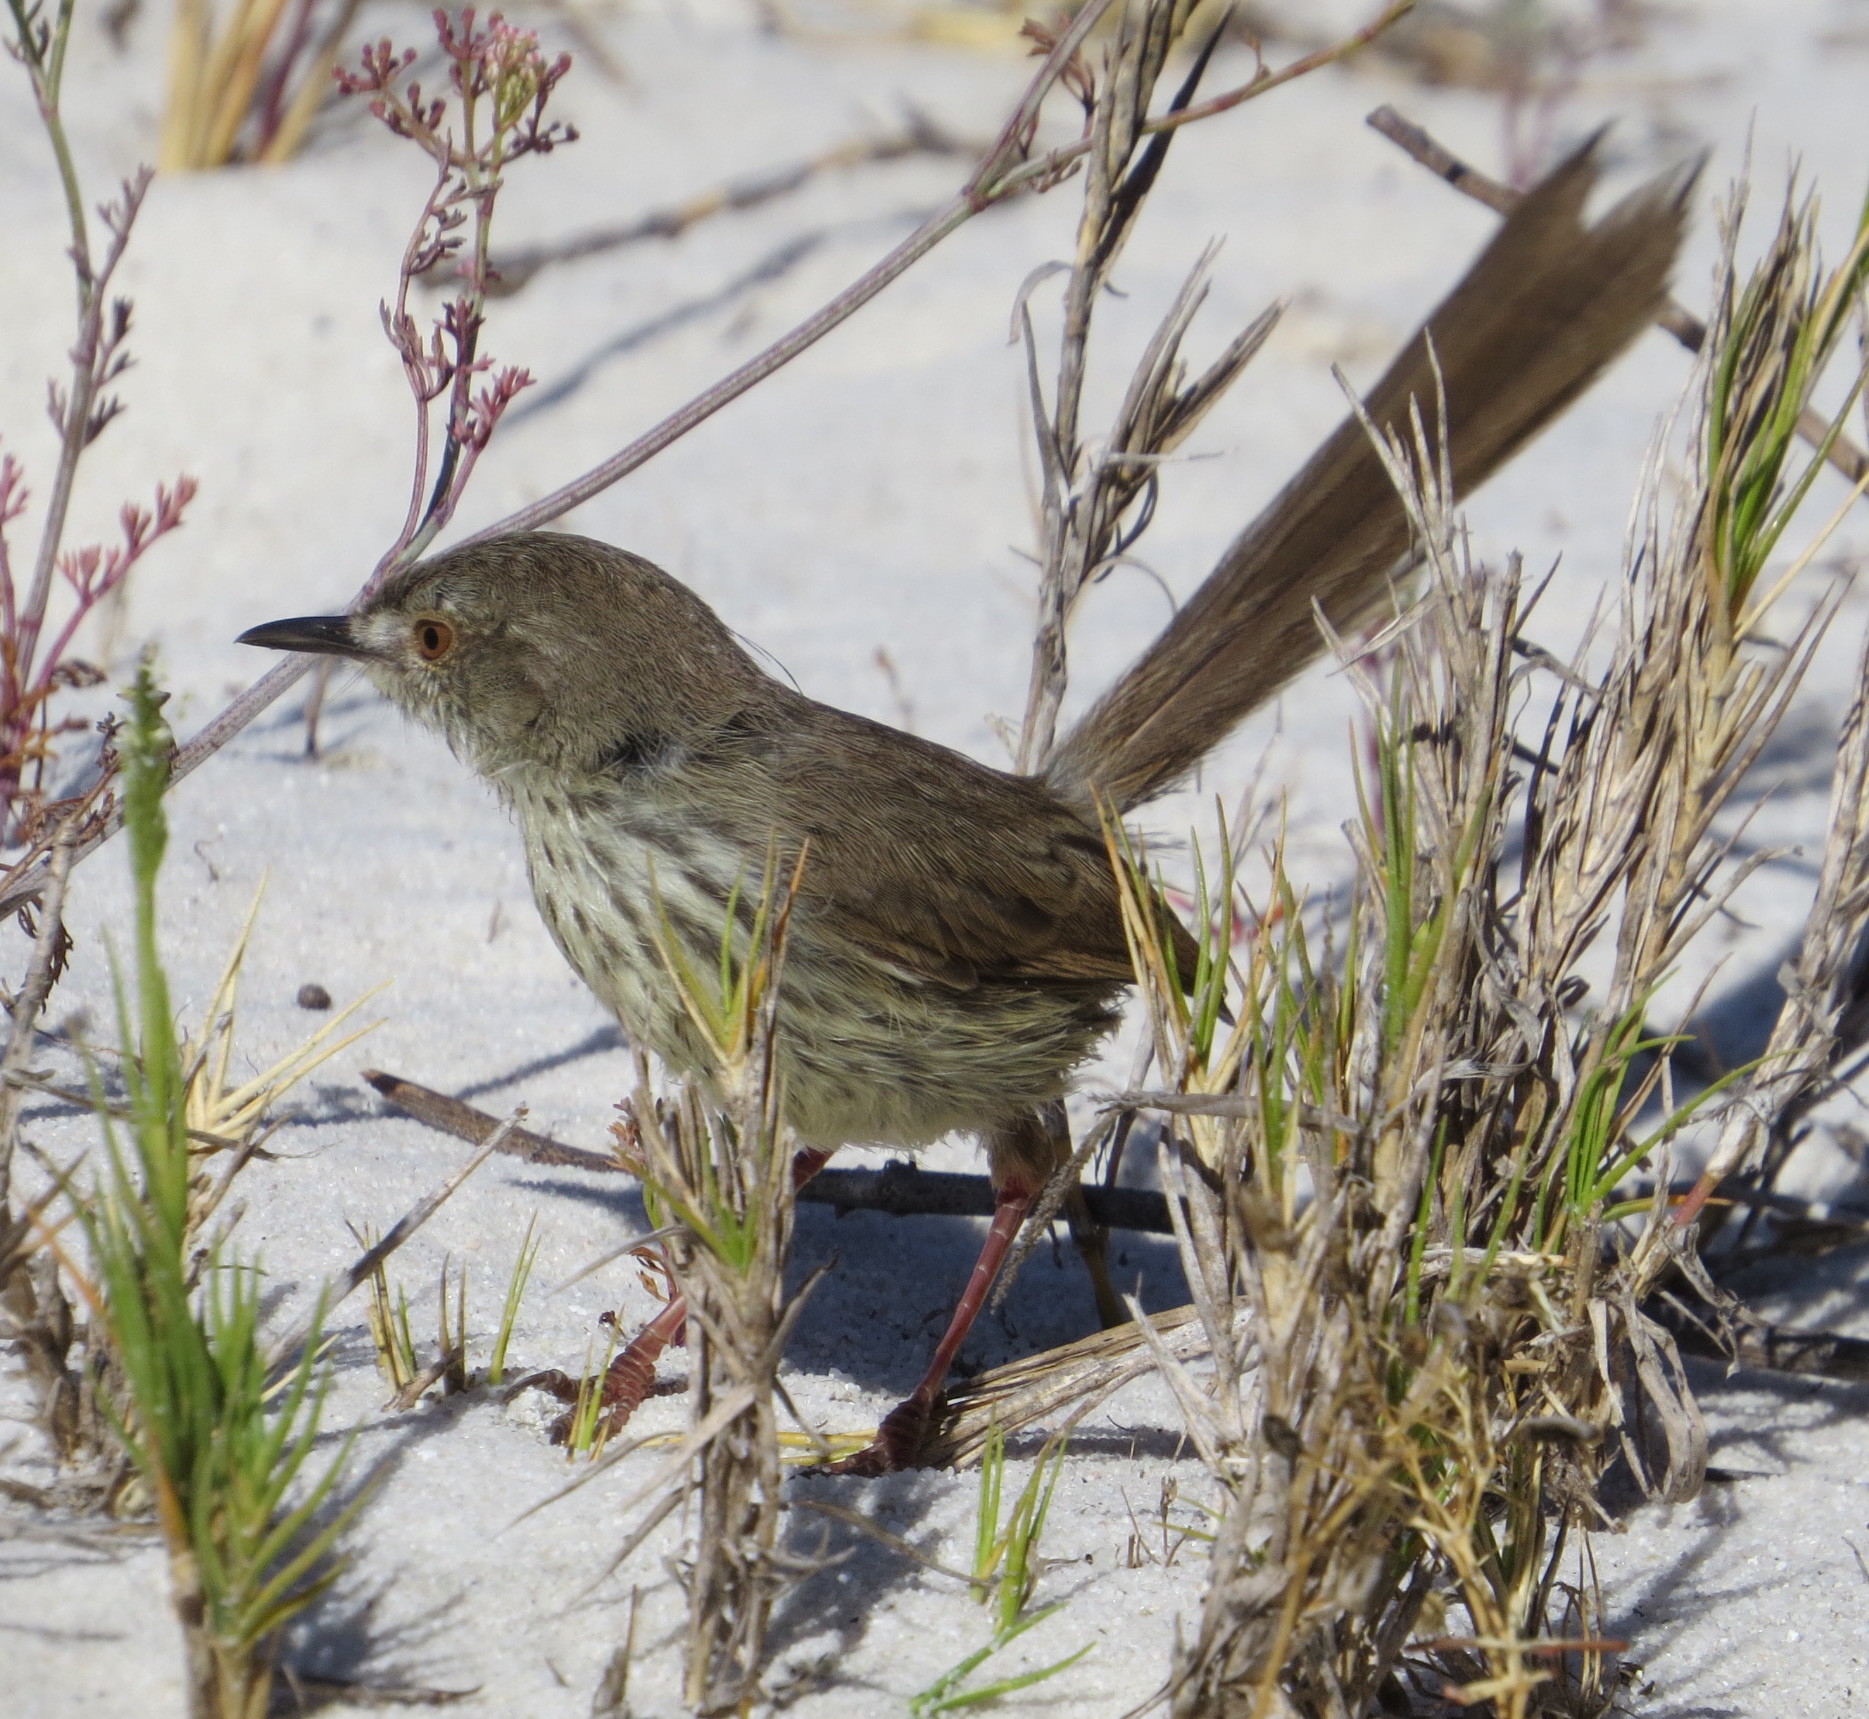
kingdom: Animalia
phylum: Chordata
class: Aves
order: Passeriformes
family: Cisticolidae
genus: Prinia
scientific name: Prinia maculosa
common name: Karoo prinia
